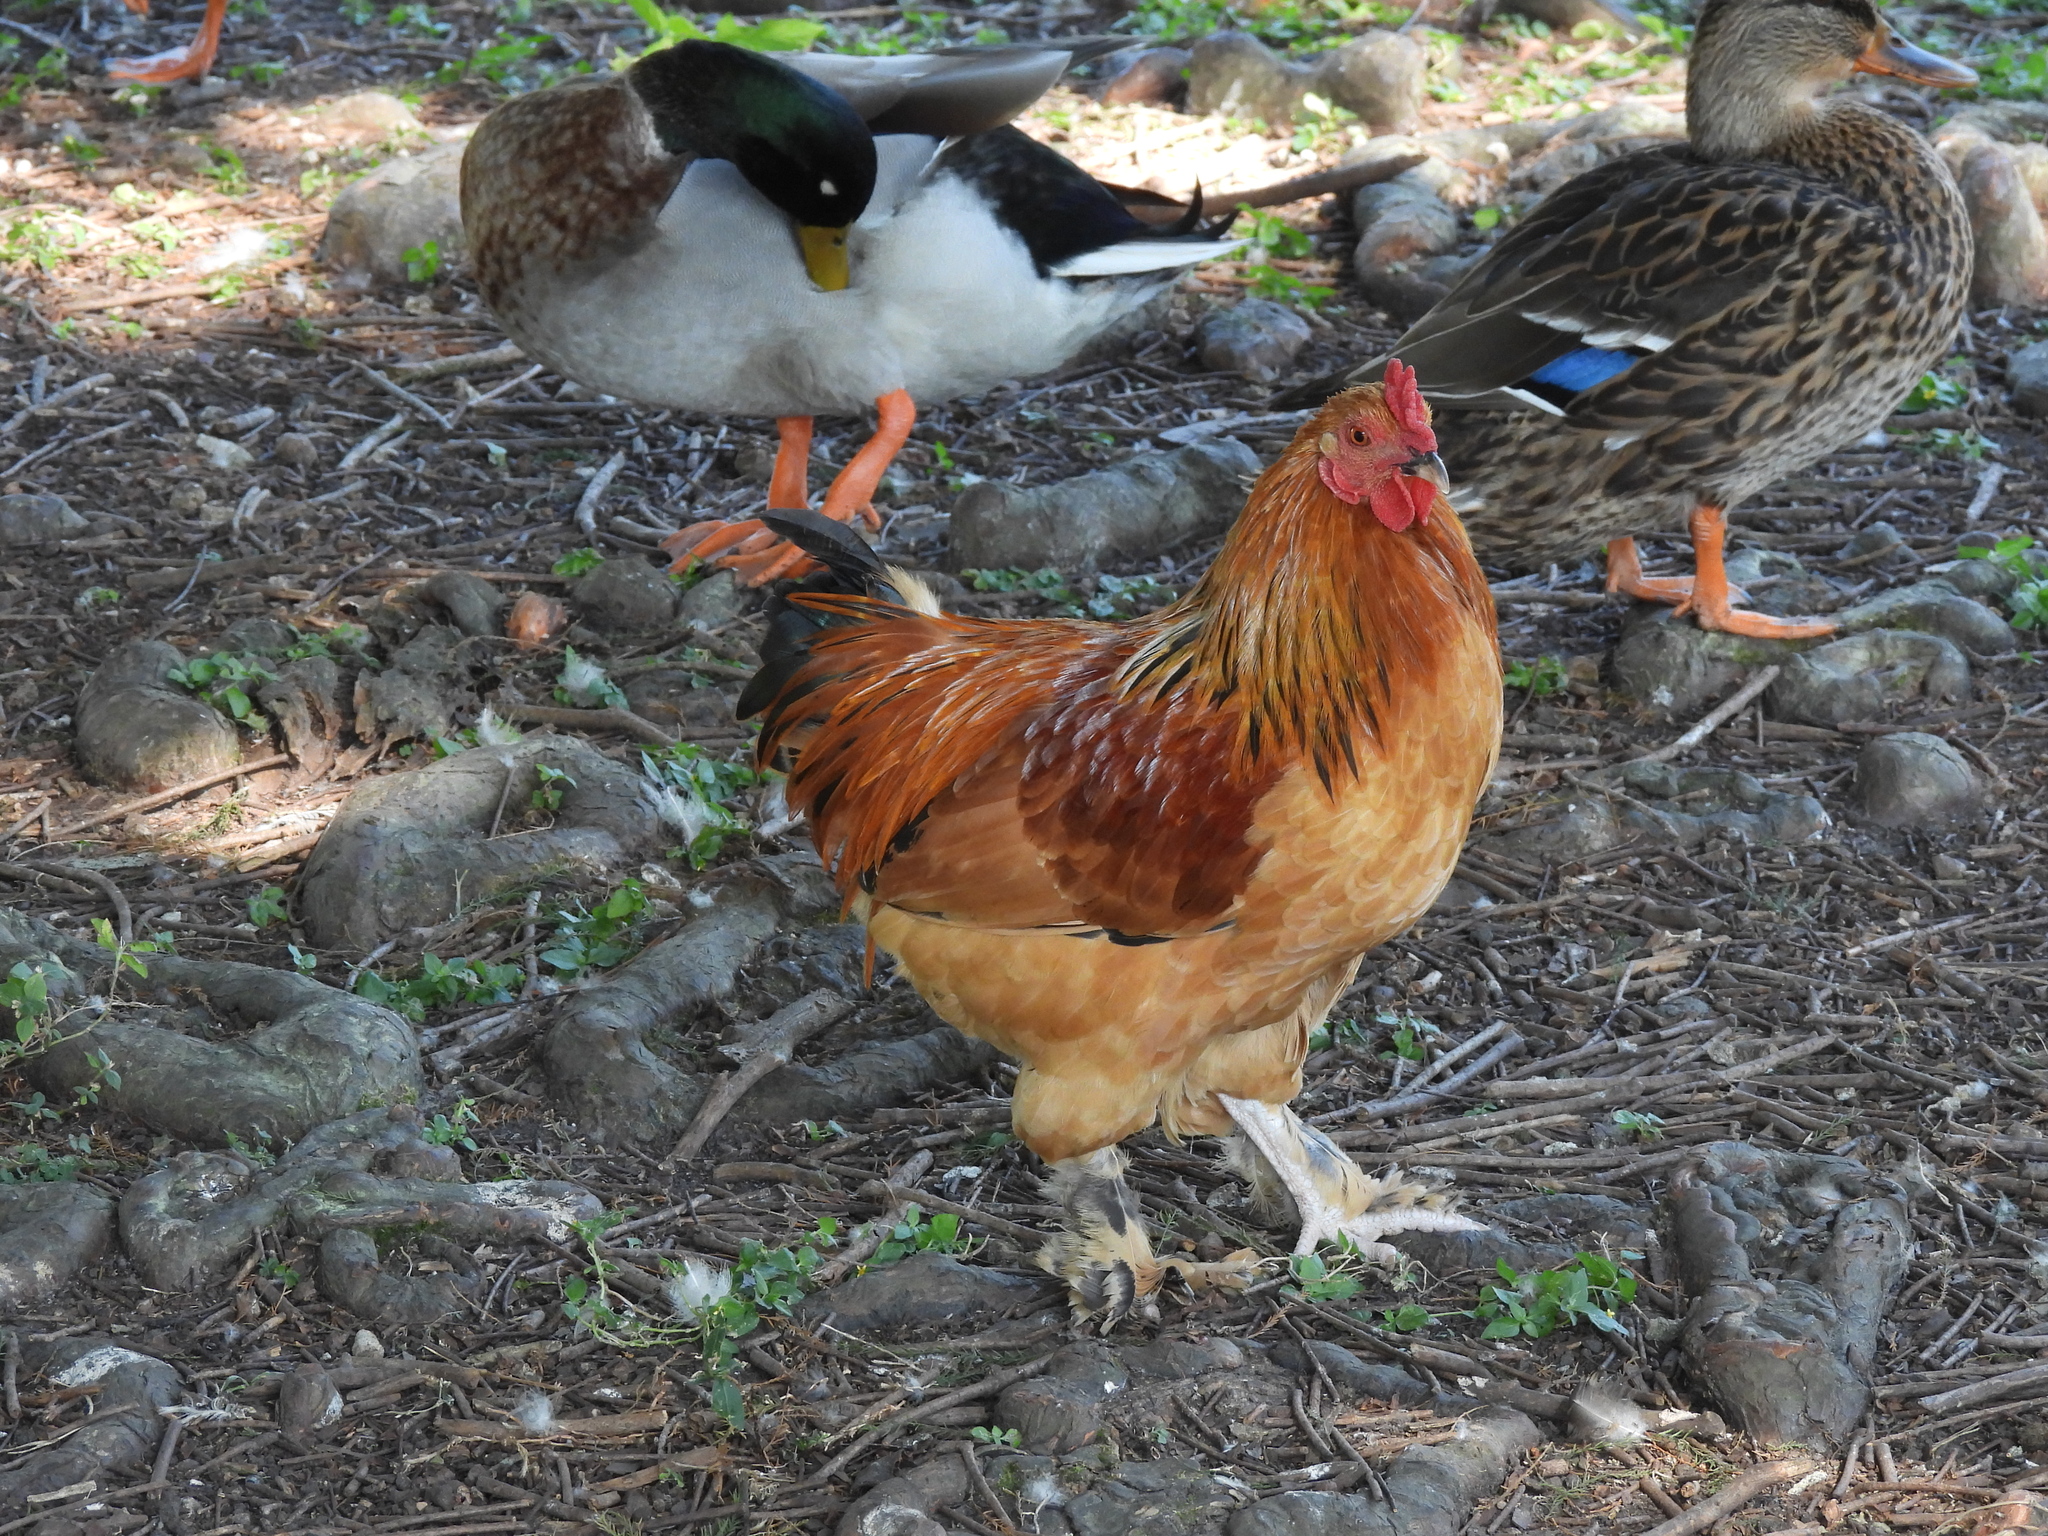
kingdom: Animalia
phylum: Chordata
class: Aves
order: Galliformes
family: Phasianidae
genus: Gallus
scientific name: Gallus gallus
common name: Red junglefowl
